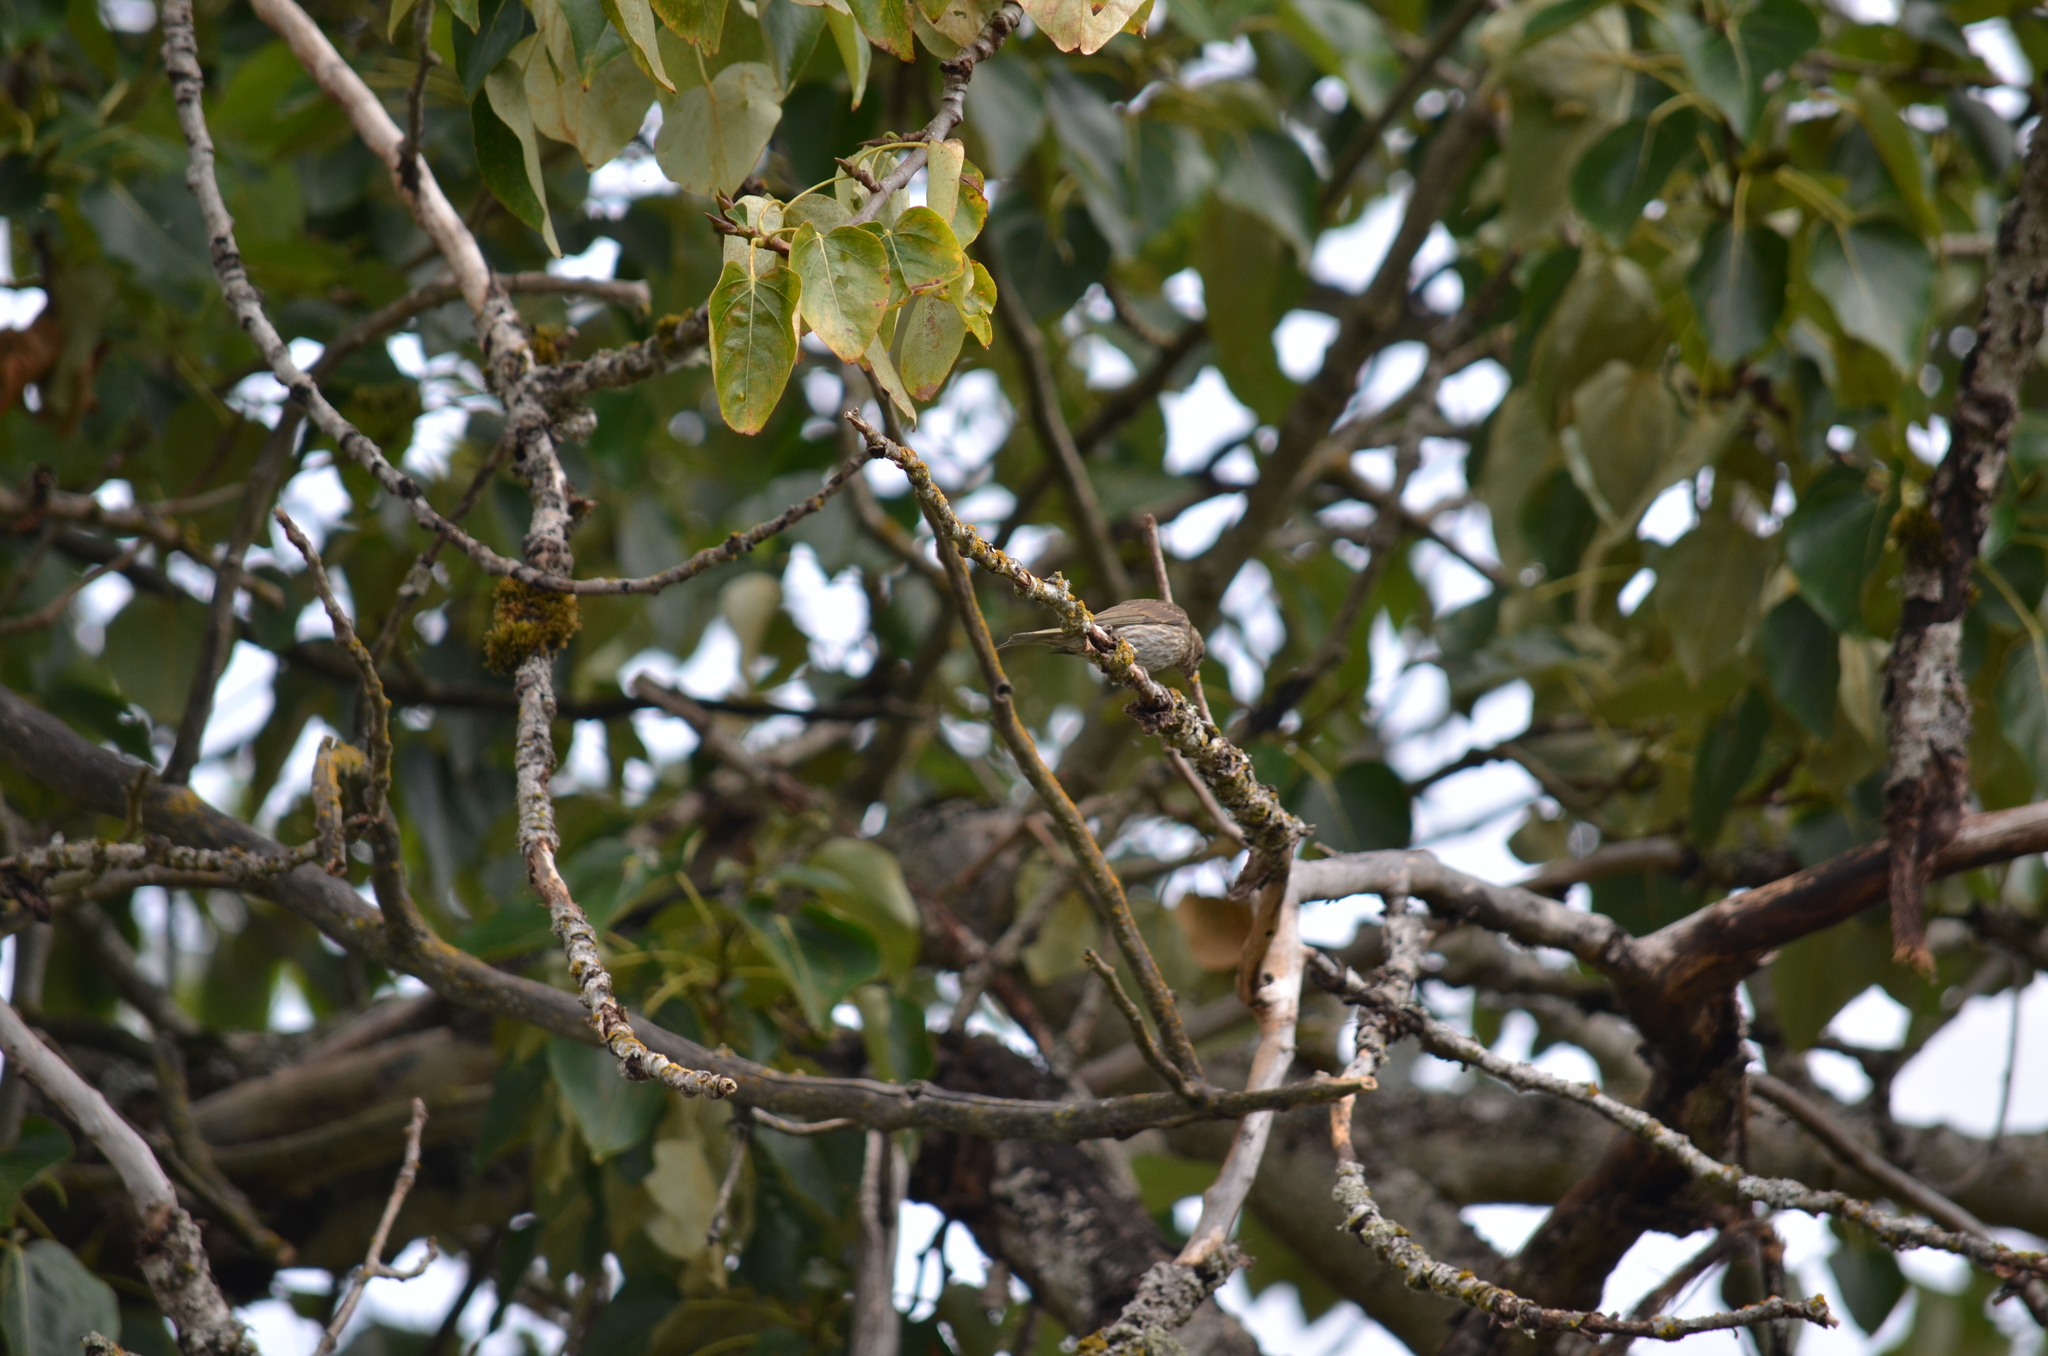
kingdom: Animalia
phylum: Chordata
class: Aves
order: Passeriformes
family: Fringillidae
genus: Haemorhous
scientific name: Haemorhous purpureus
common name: Purple finch
